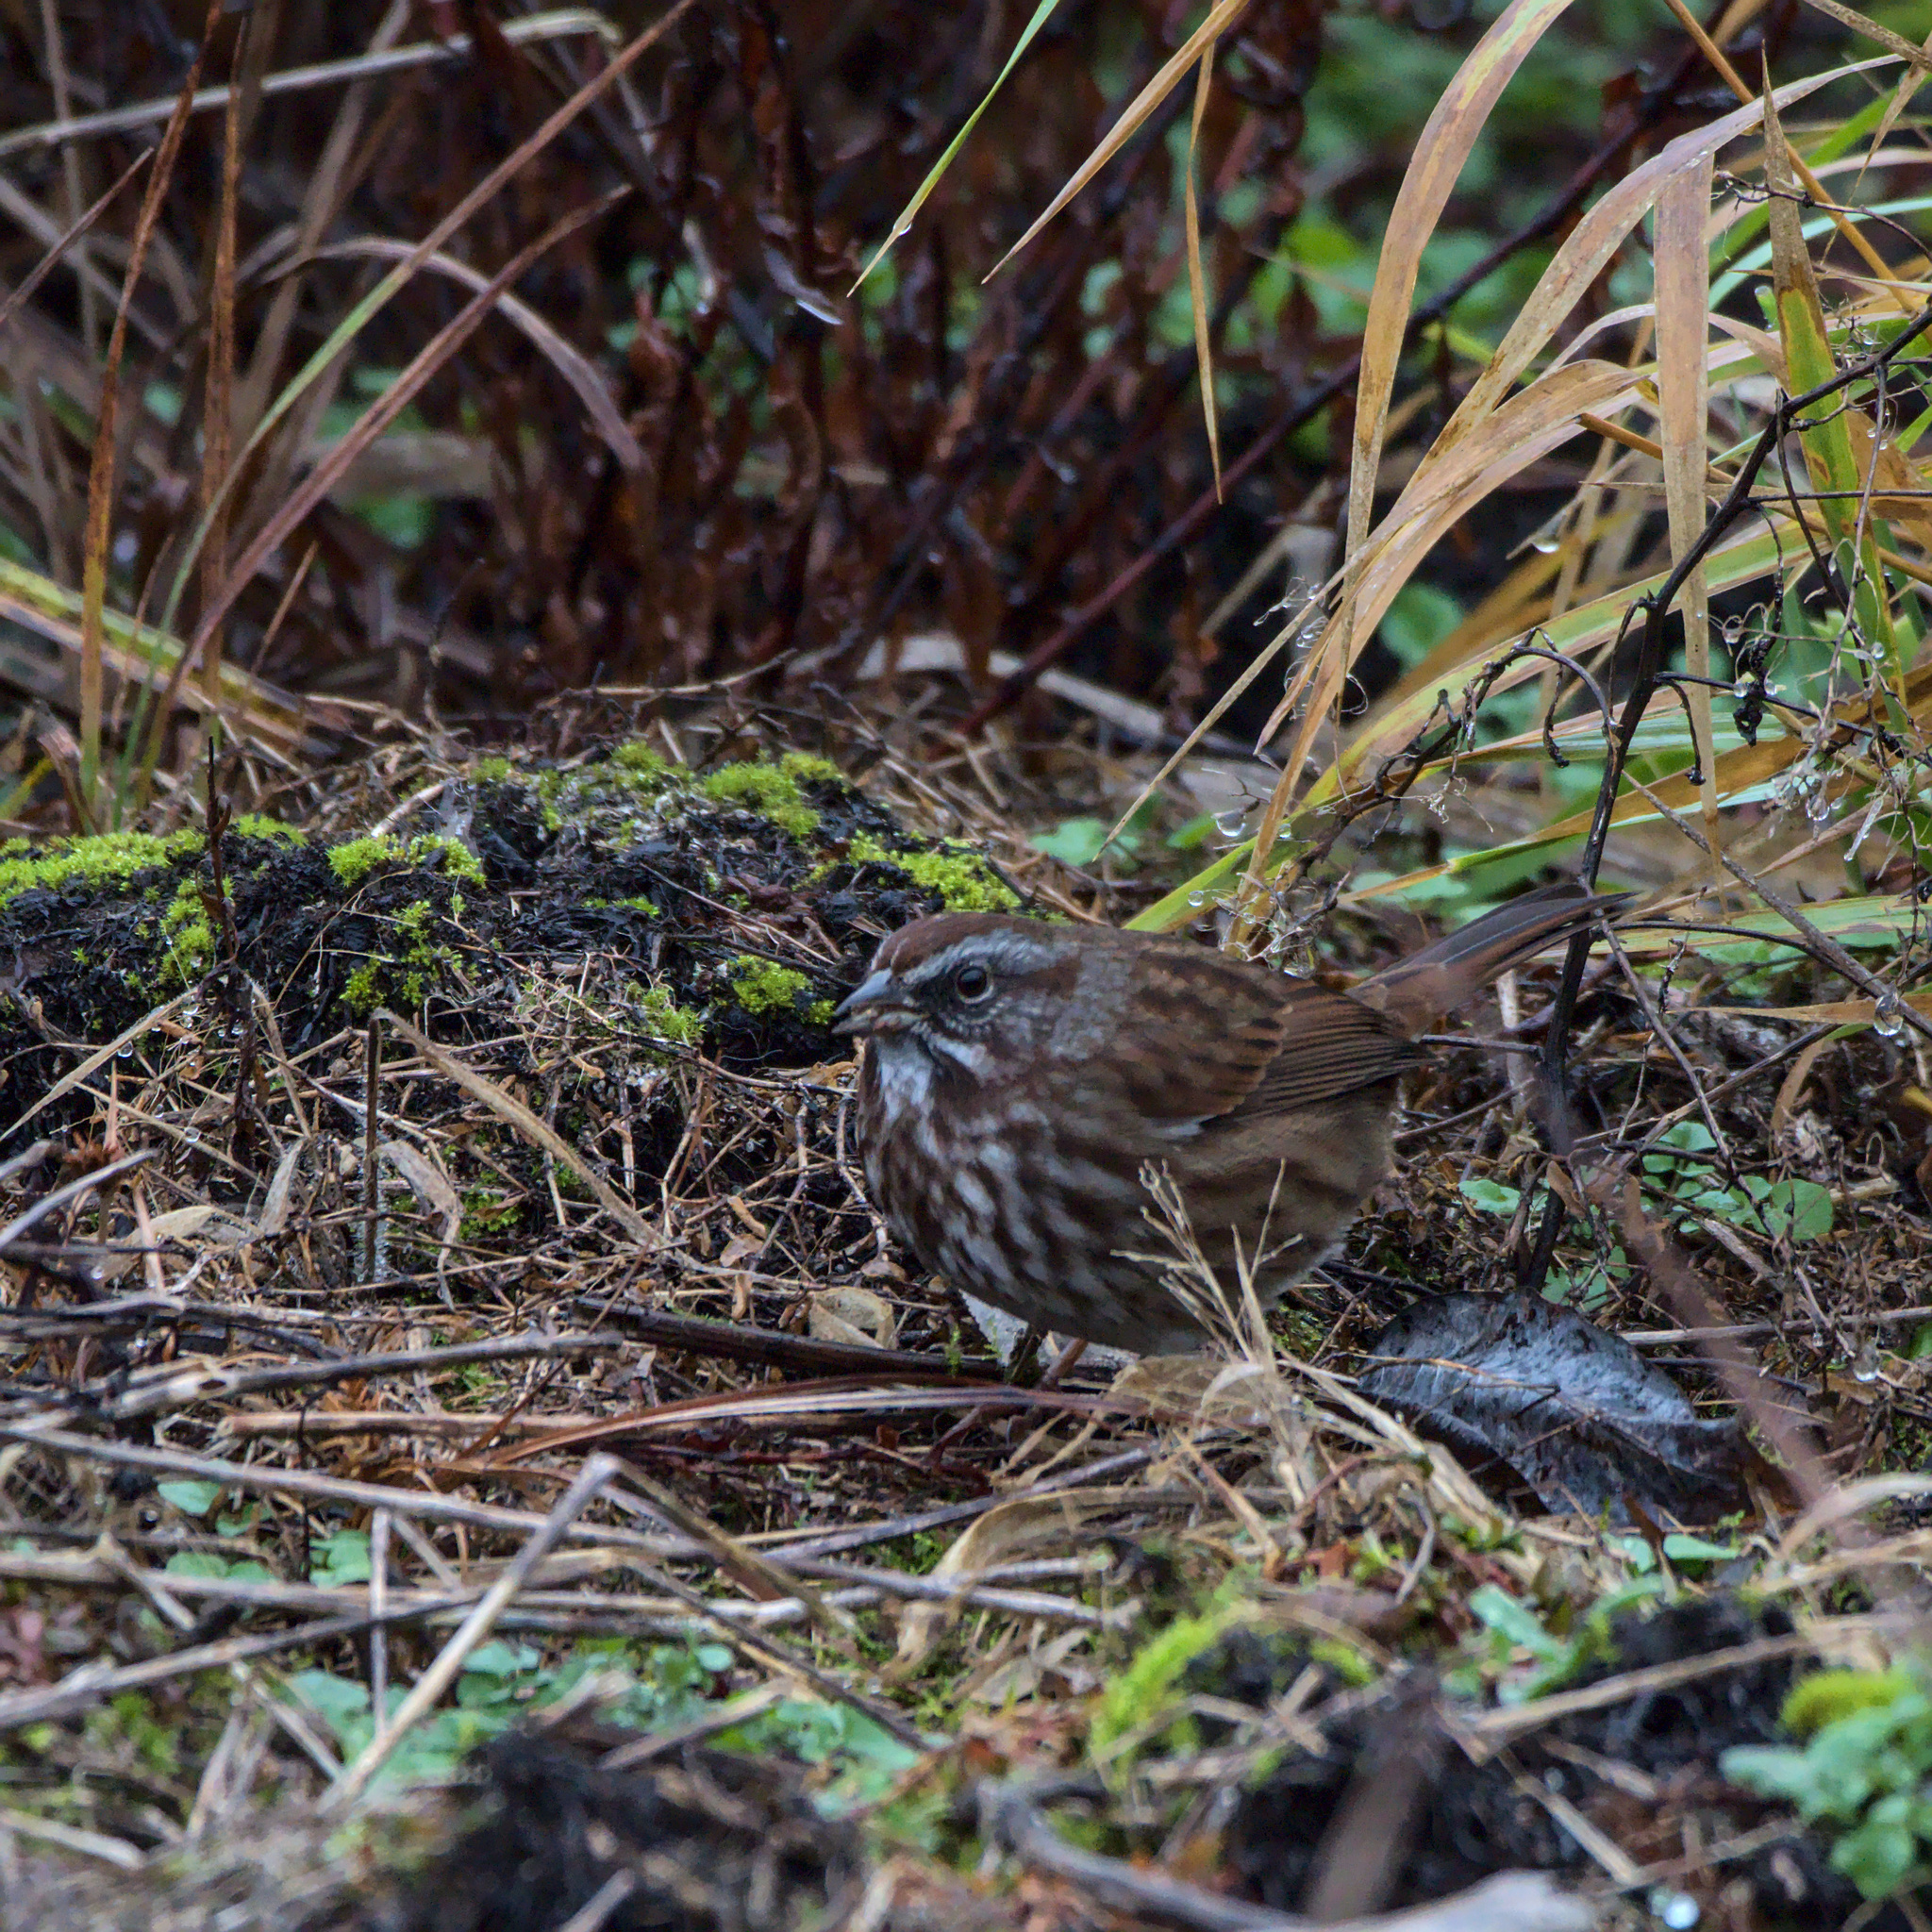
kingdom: Animalia
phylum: Chordata
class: Aves
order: Passeriformes
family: Passerellidae
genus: Melospiza
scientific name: Melospiza melodia
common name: Song sparrow
